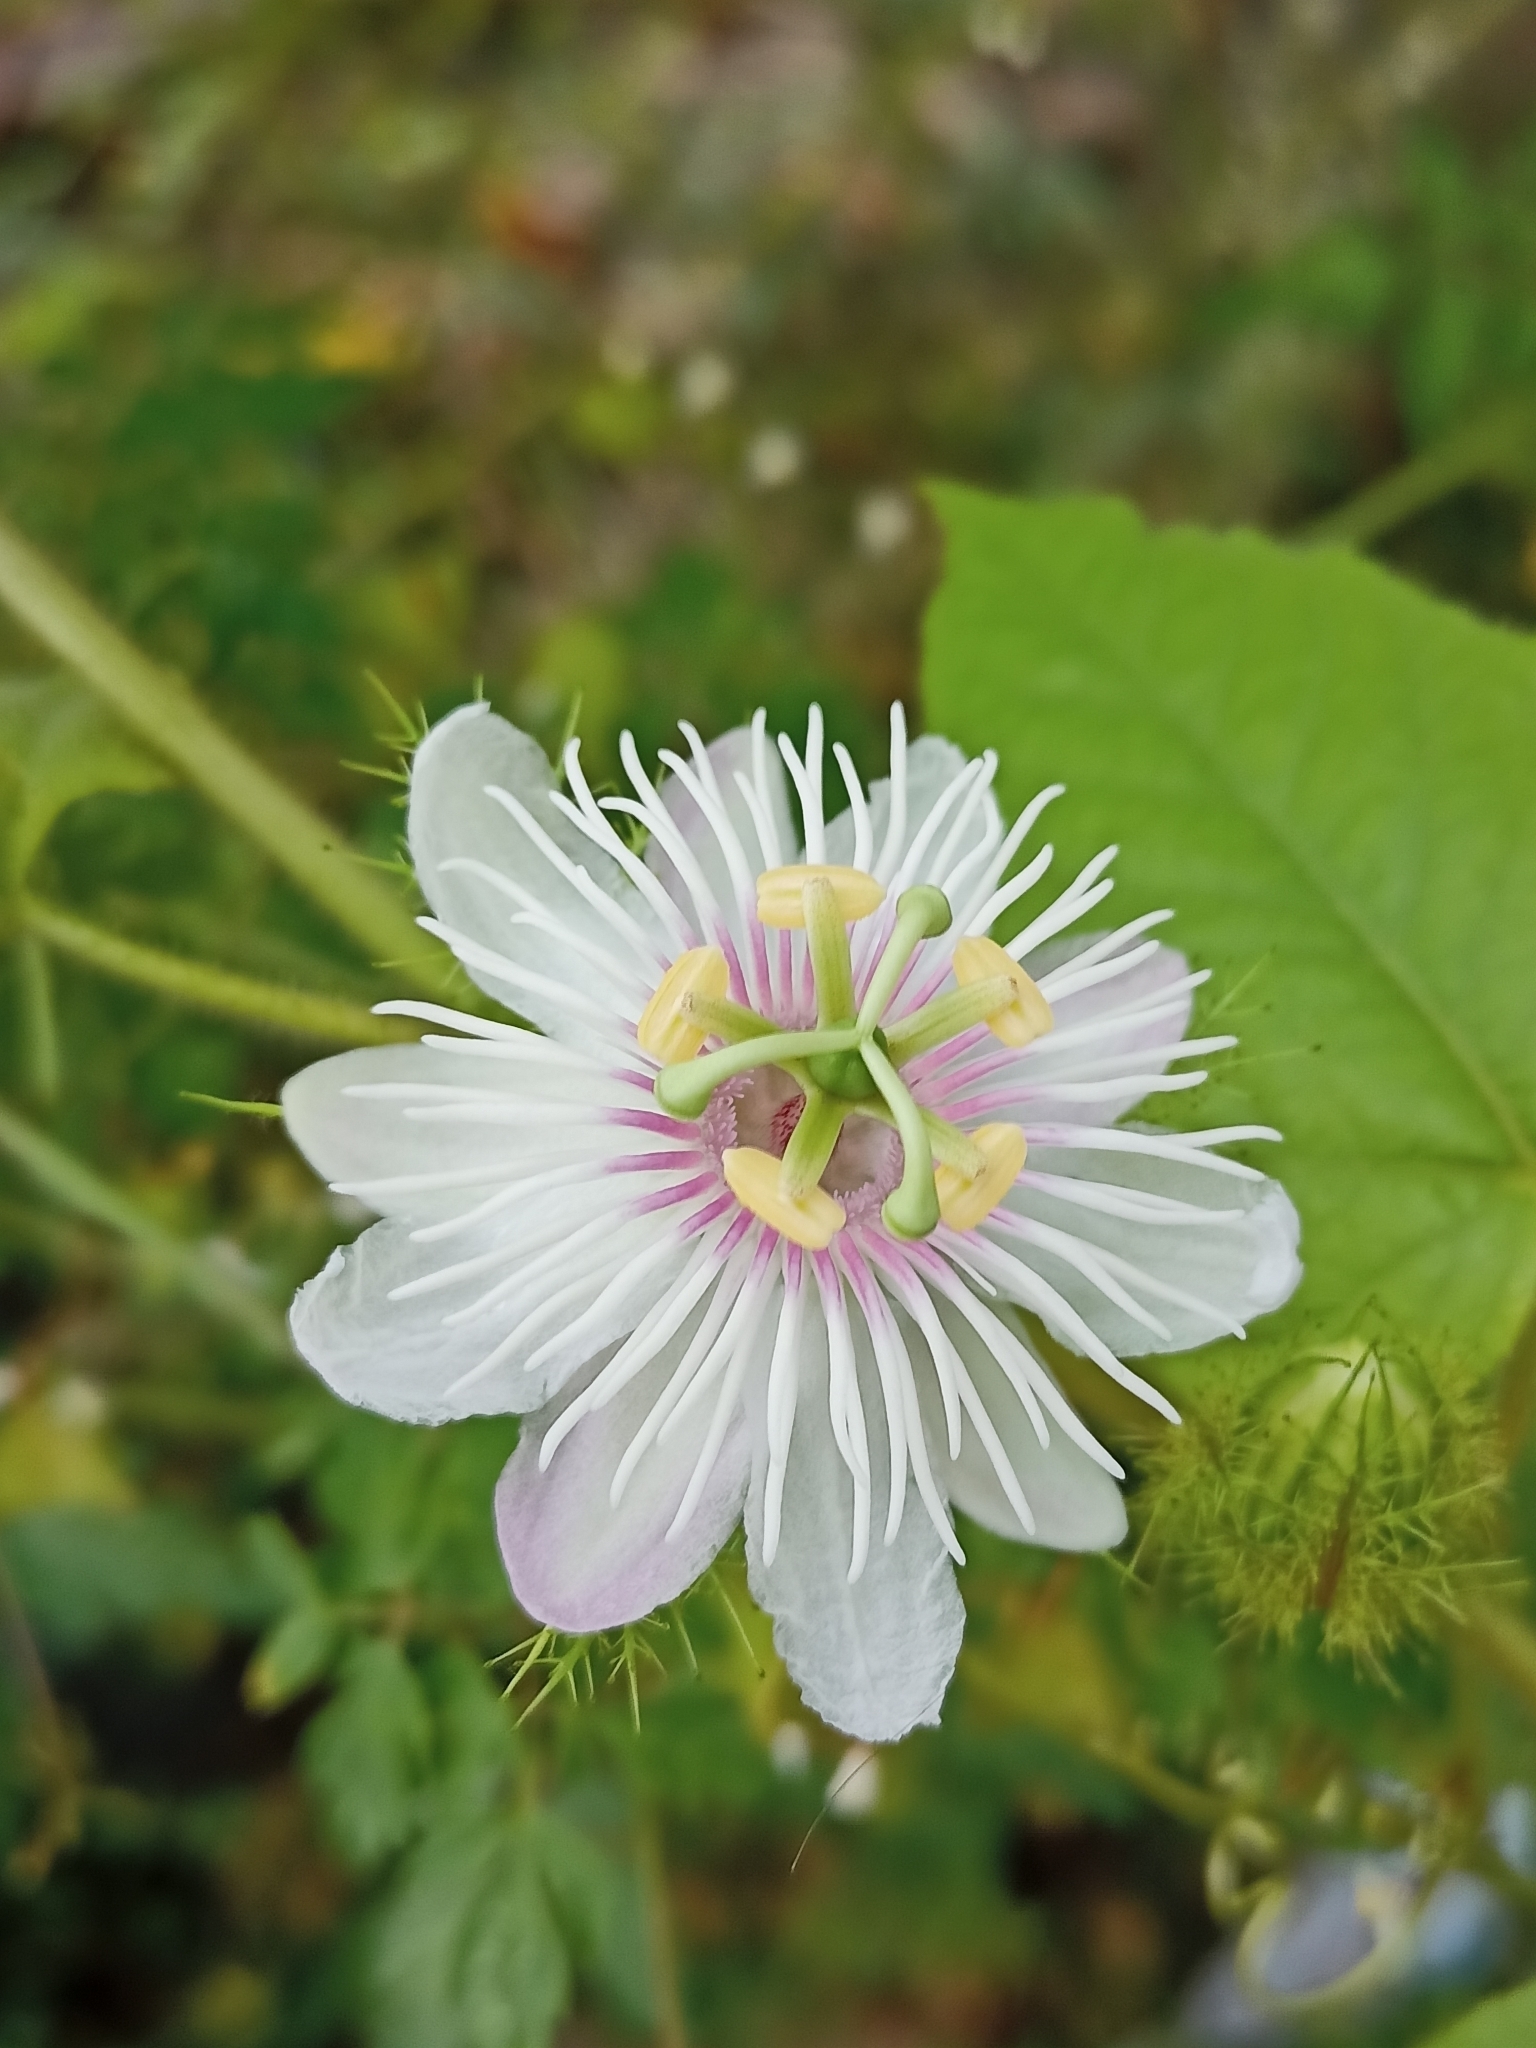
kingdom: Plantae
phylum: Tracheophyta
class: Magnoliopsida
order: Malpighiales
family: Passifloraceae
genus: Passiflora
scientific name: Passiflora foetida
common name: Fetid passionflower
